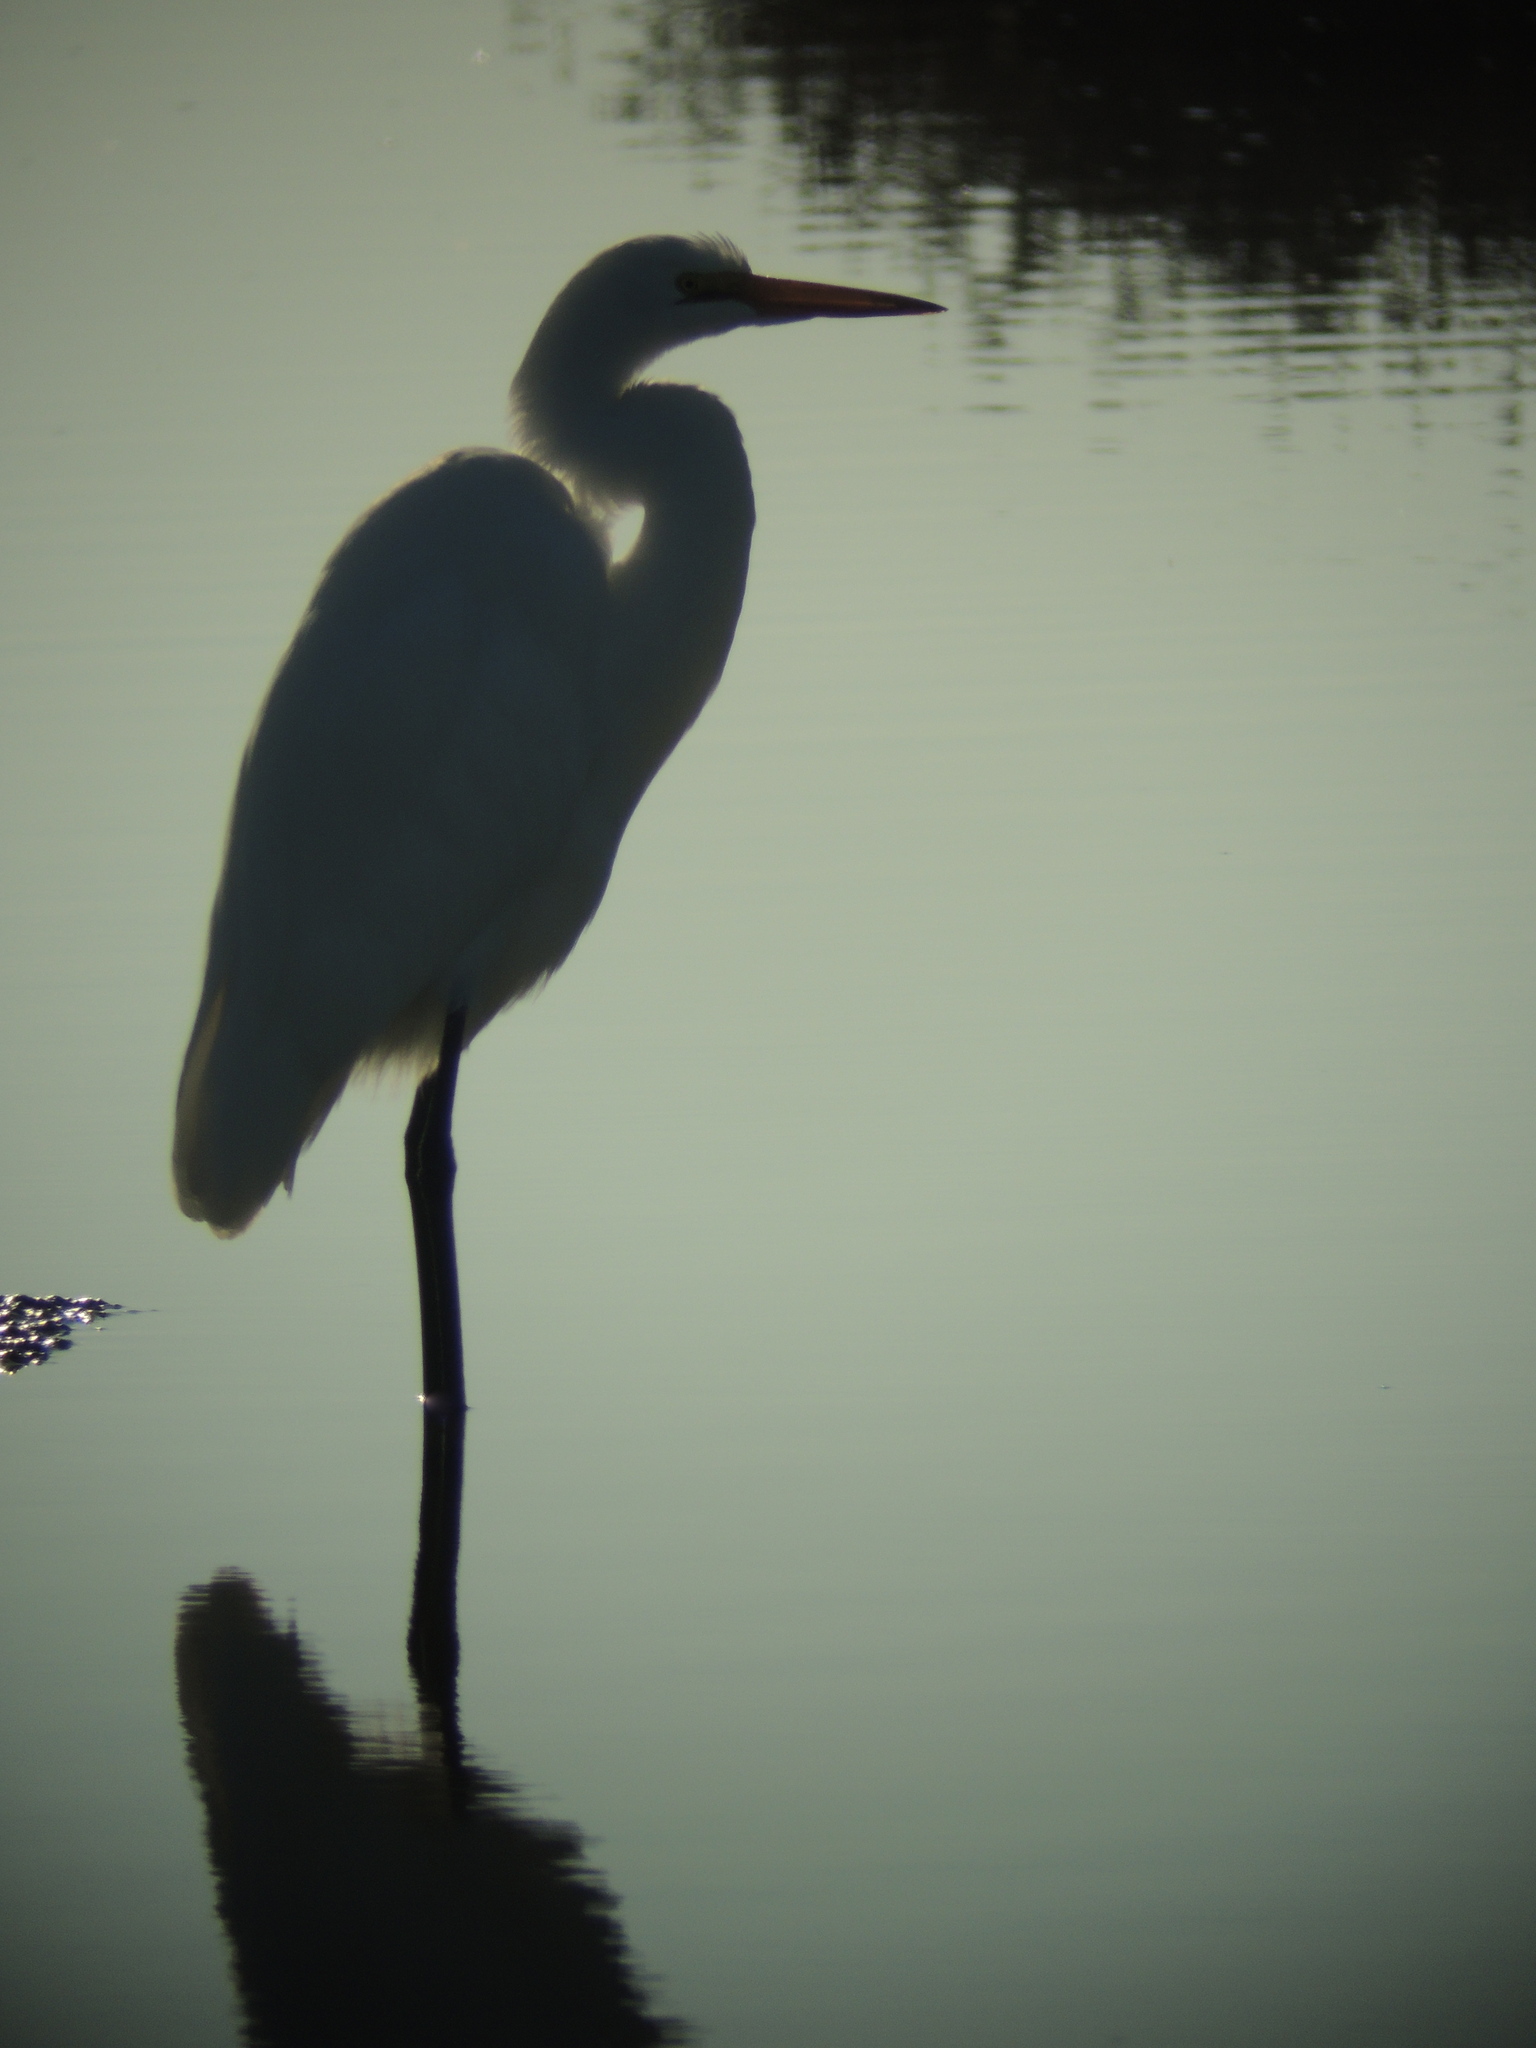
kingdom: Animalia
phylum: Chordata
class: Aves
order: Pelecaniformes
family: Ardeidae
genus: Ardea
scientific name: Ardea alba
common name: Great egret
